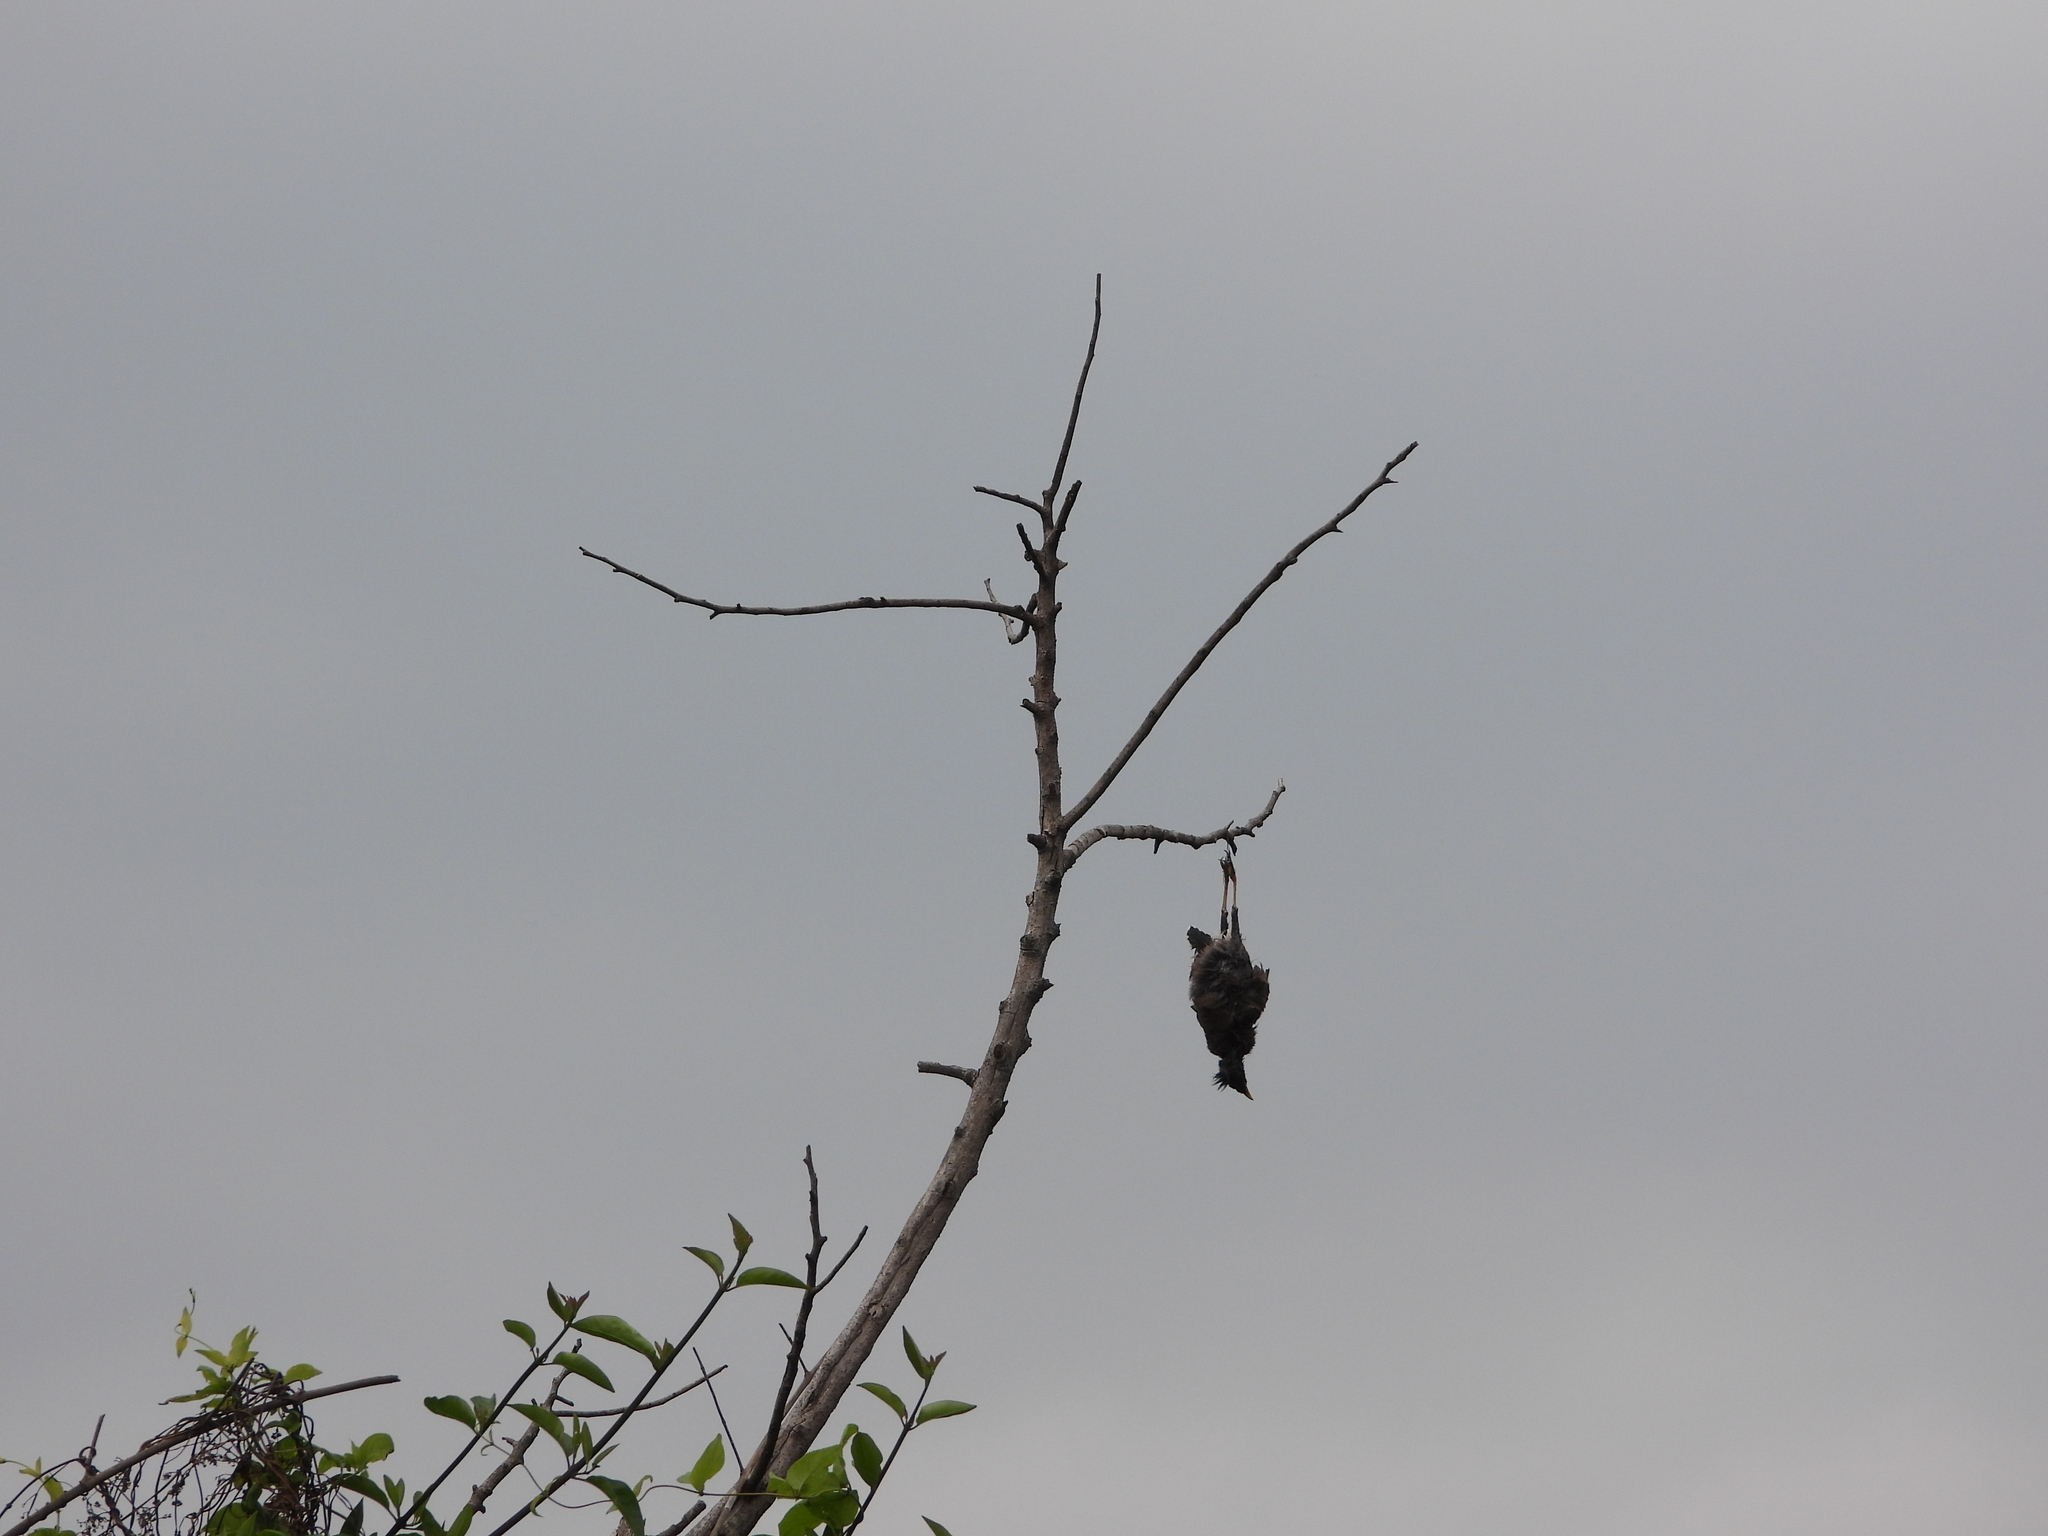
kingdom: Animalia
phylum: Chordata
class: Aves
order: Passeriformes
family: Sturnidae
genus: Acridotheres
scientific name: Acridotheres tristis
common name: Common myna
